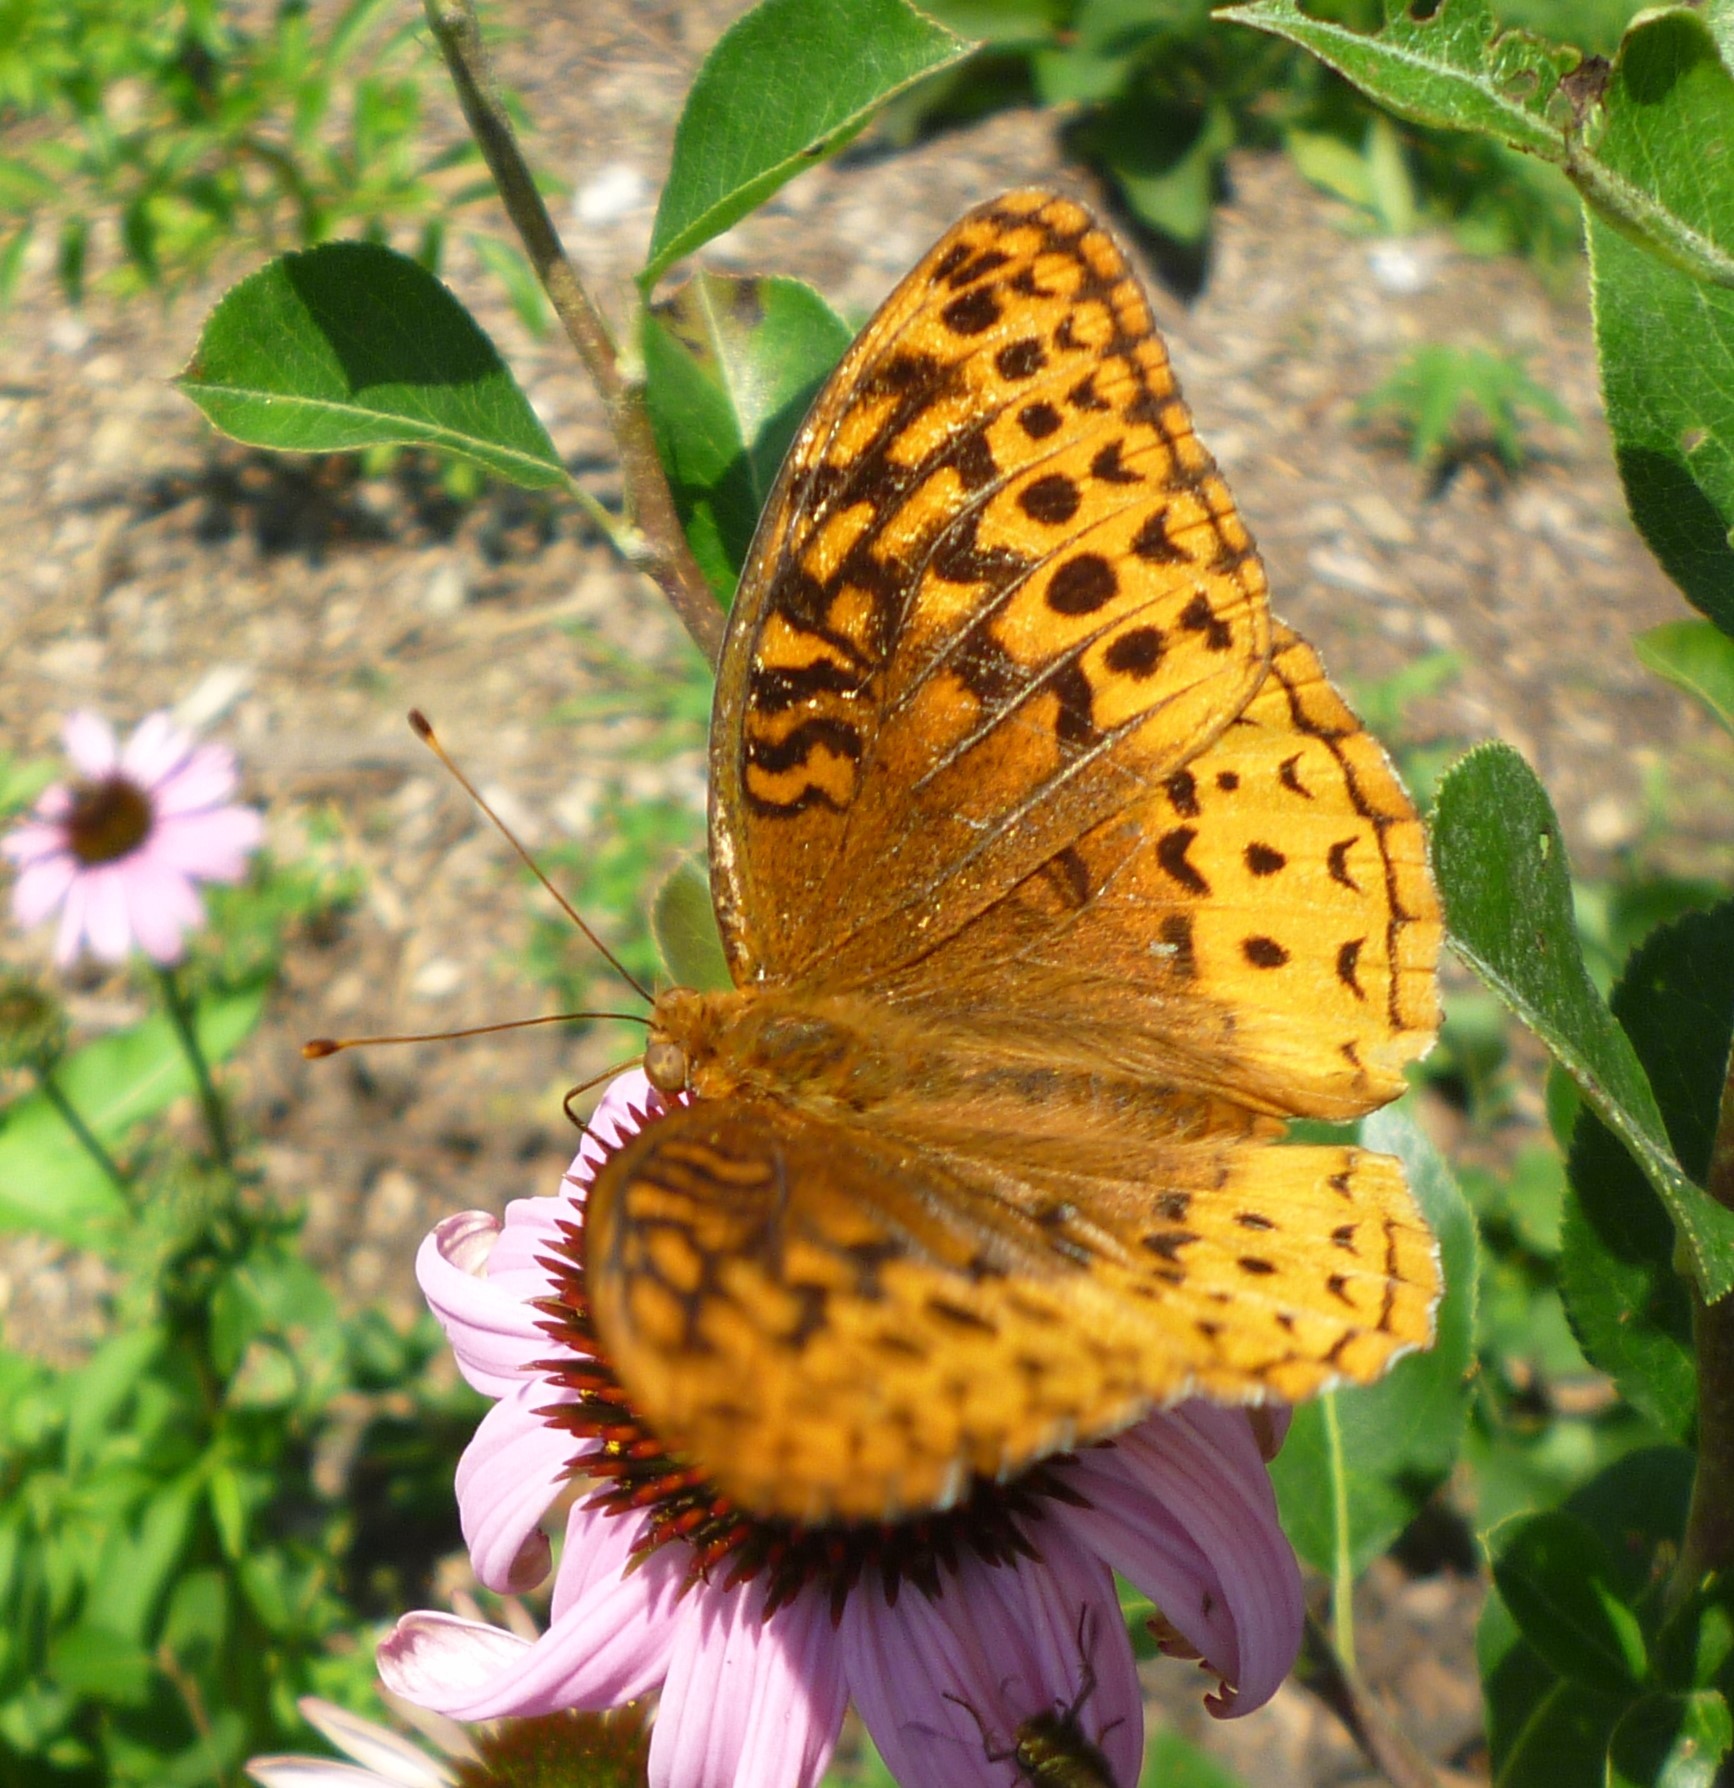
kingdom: Animalia
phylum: Arthropoda
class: Insecta
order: Lepidoptera
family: Nymphalidae
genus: Speyeria
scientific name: Speyeria cybele
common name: Great spangled fritillary
